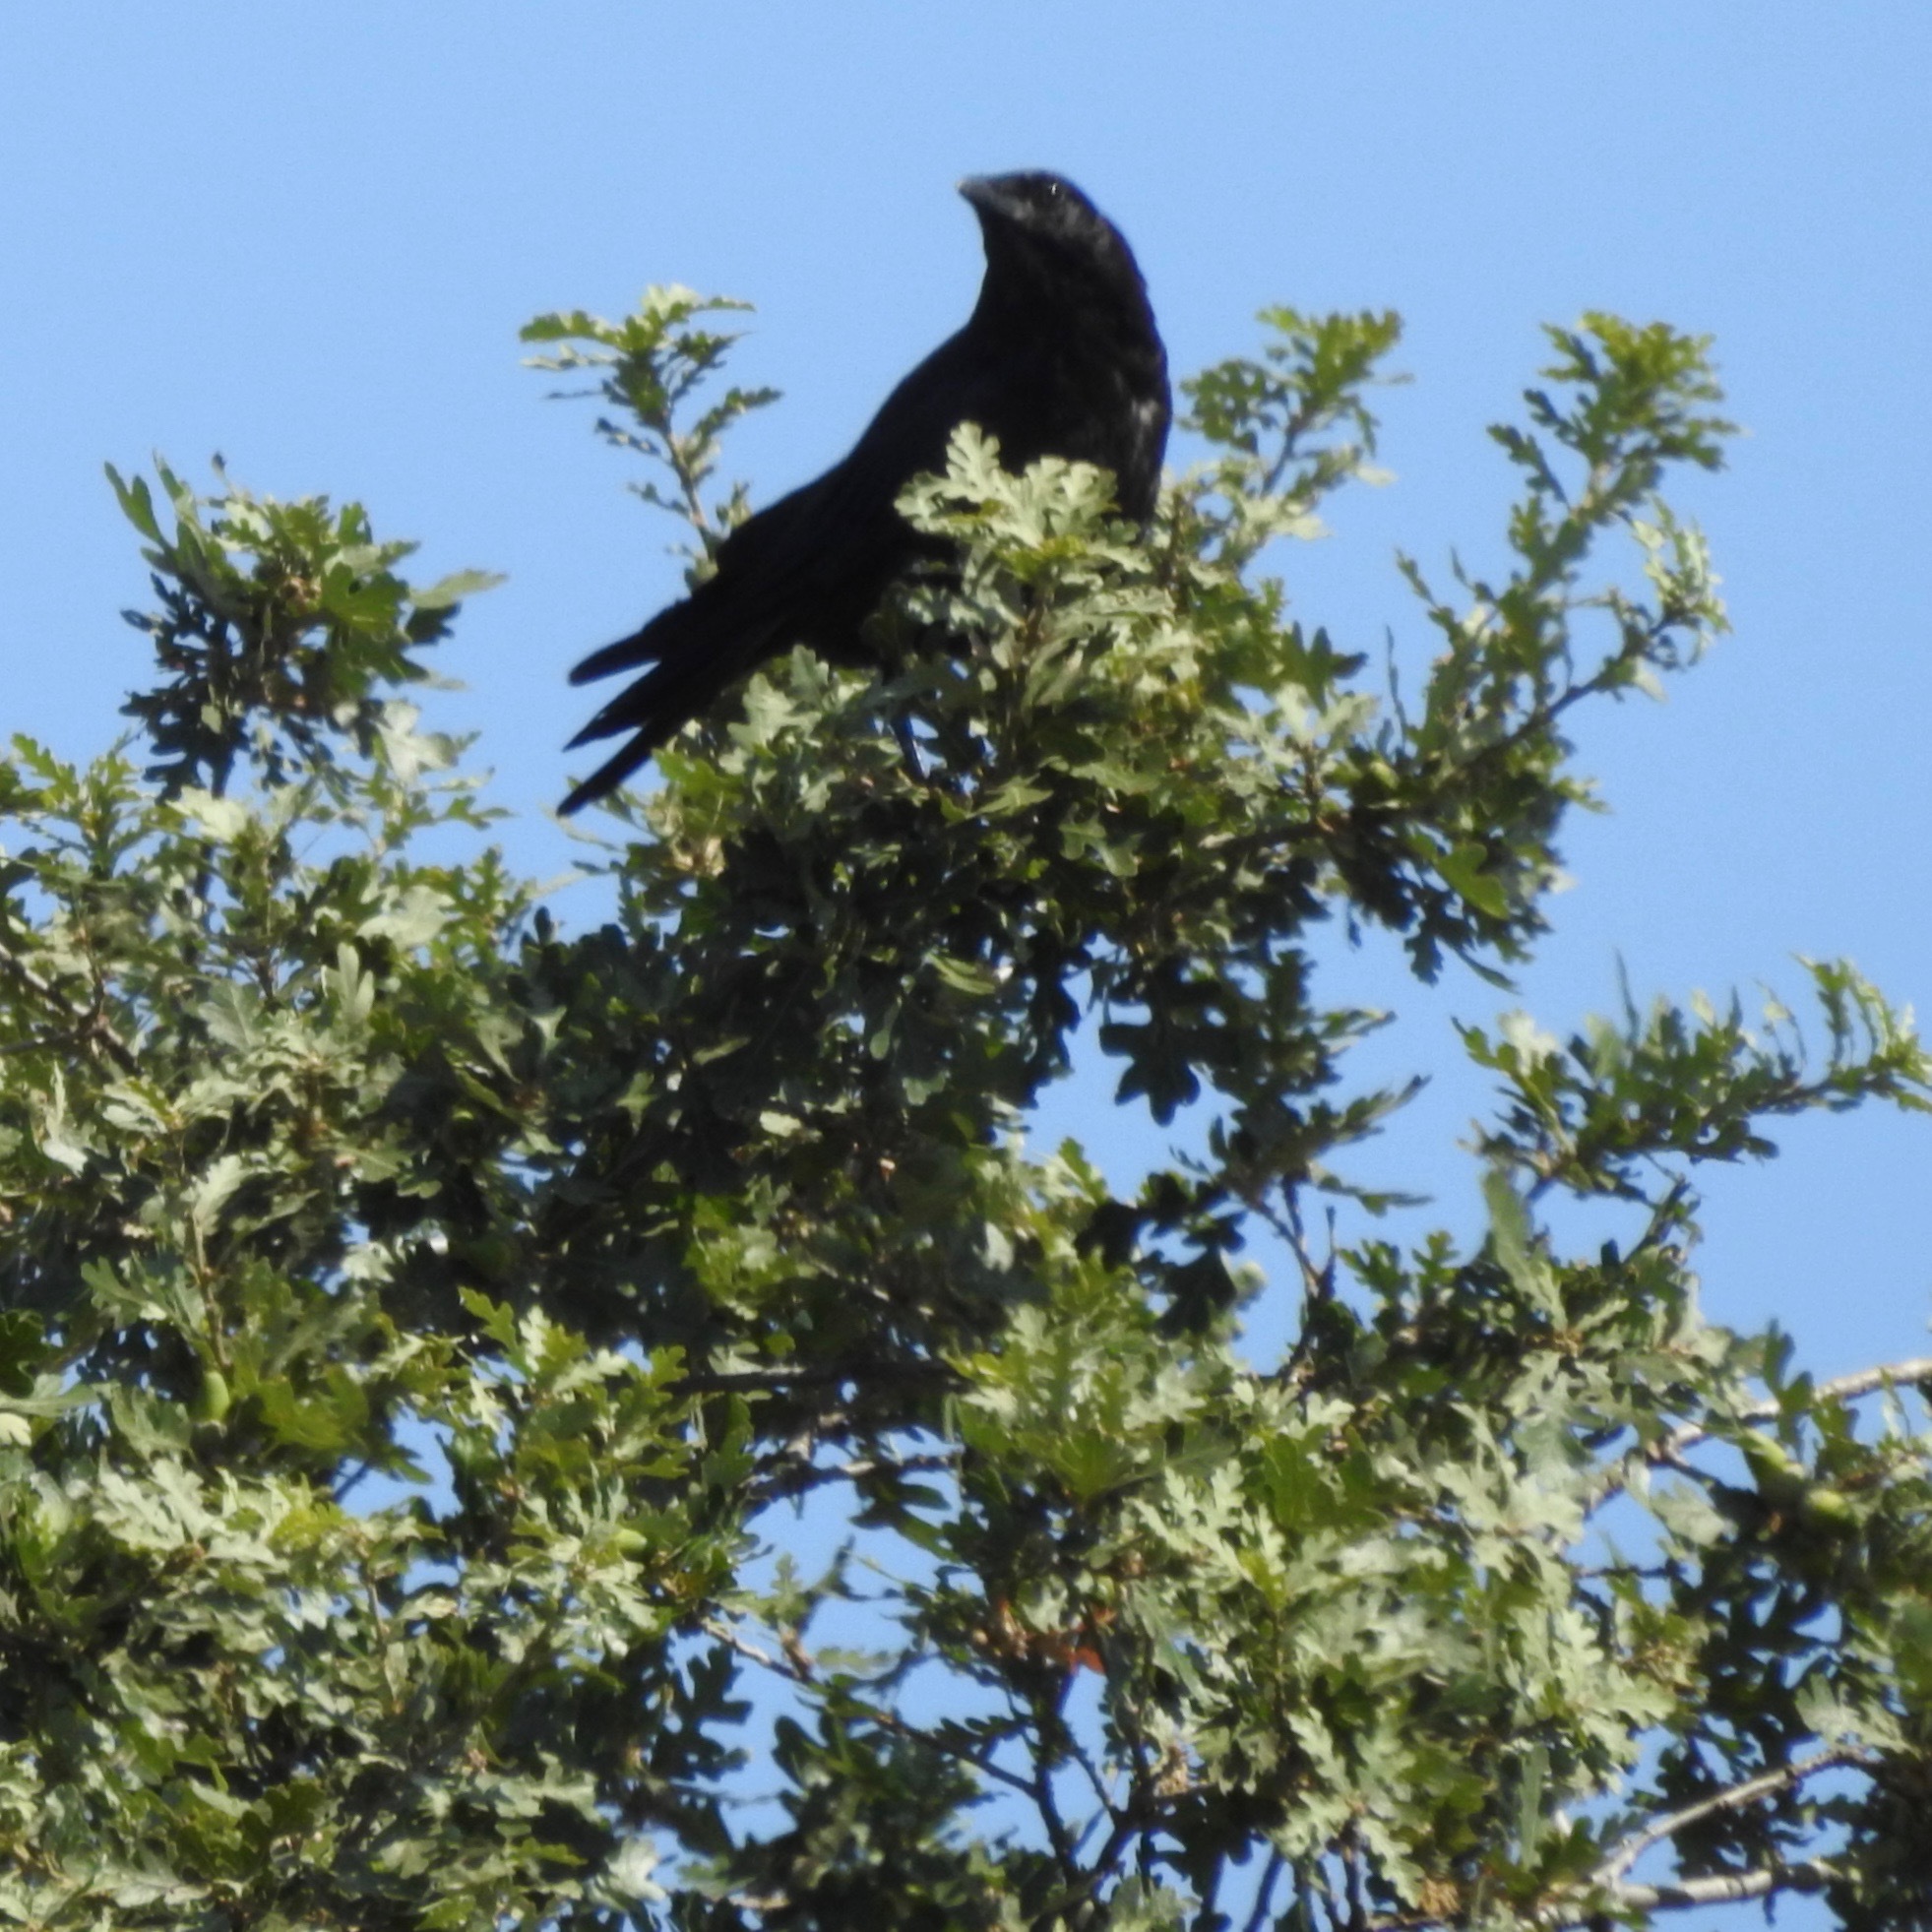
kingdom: Animalia
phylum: Chordata
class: Aves
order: Passeriformes
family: Corvidae
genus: Corvus
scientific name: Corvus brachyrhynchos
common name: American crow
